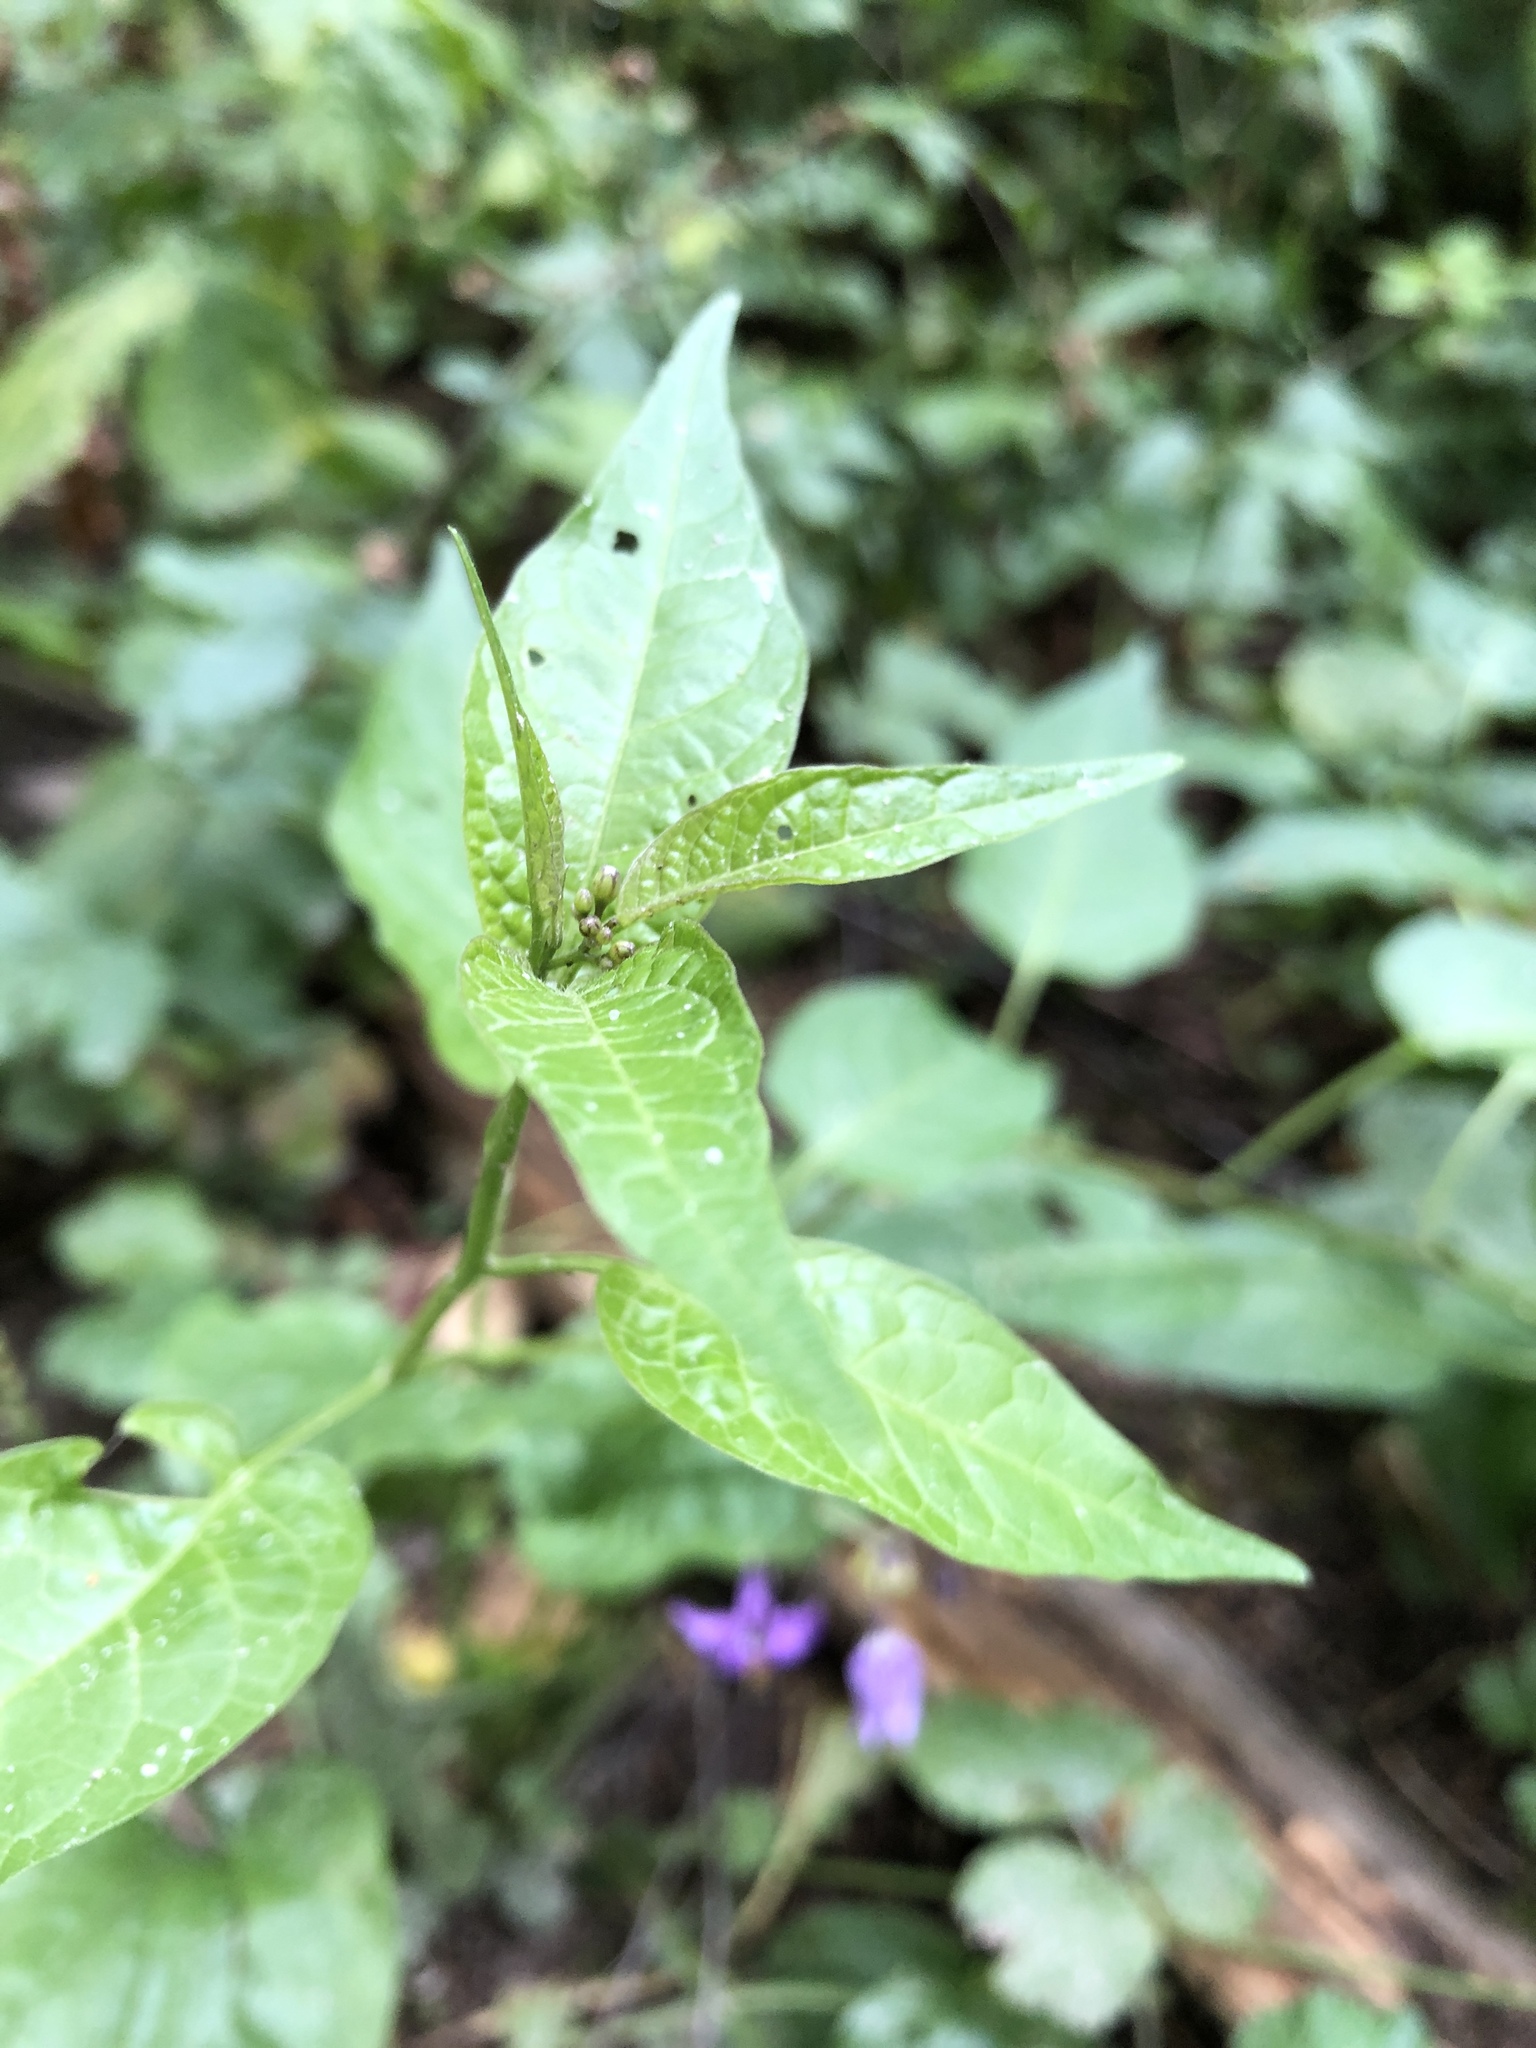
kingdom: Plantae
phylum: Tracheophyta
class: Magnoliopsida
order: Solanales
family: Solanaceae
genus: Solanum
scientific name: Solanum dulcamara
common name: Climbing nightshade
